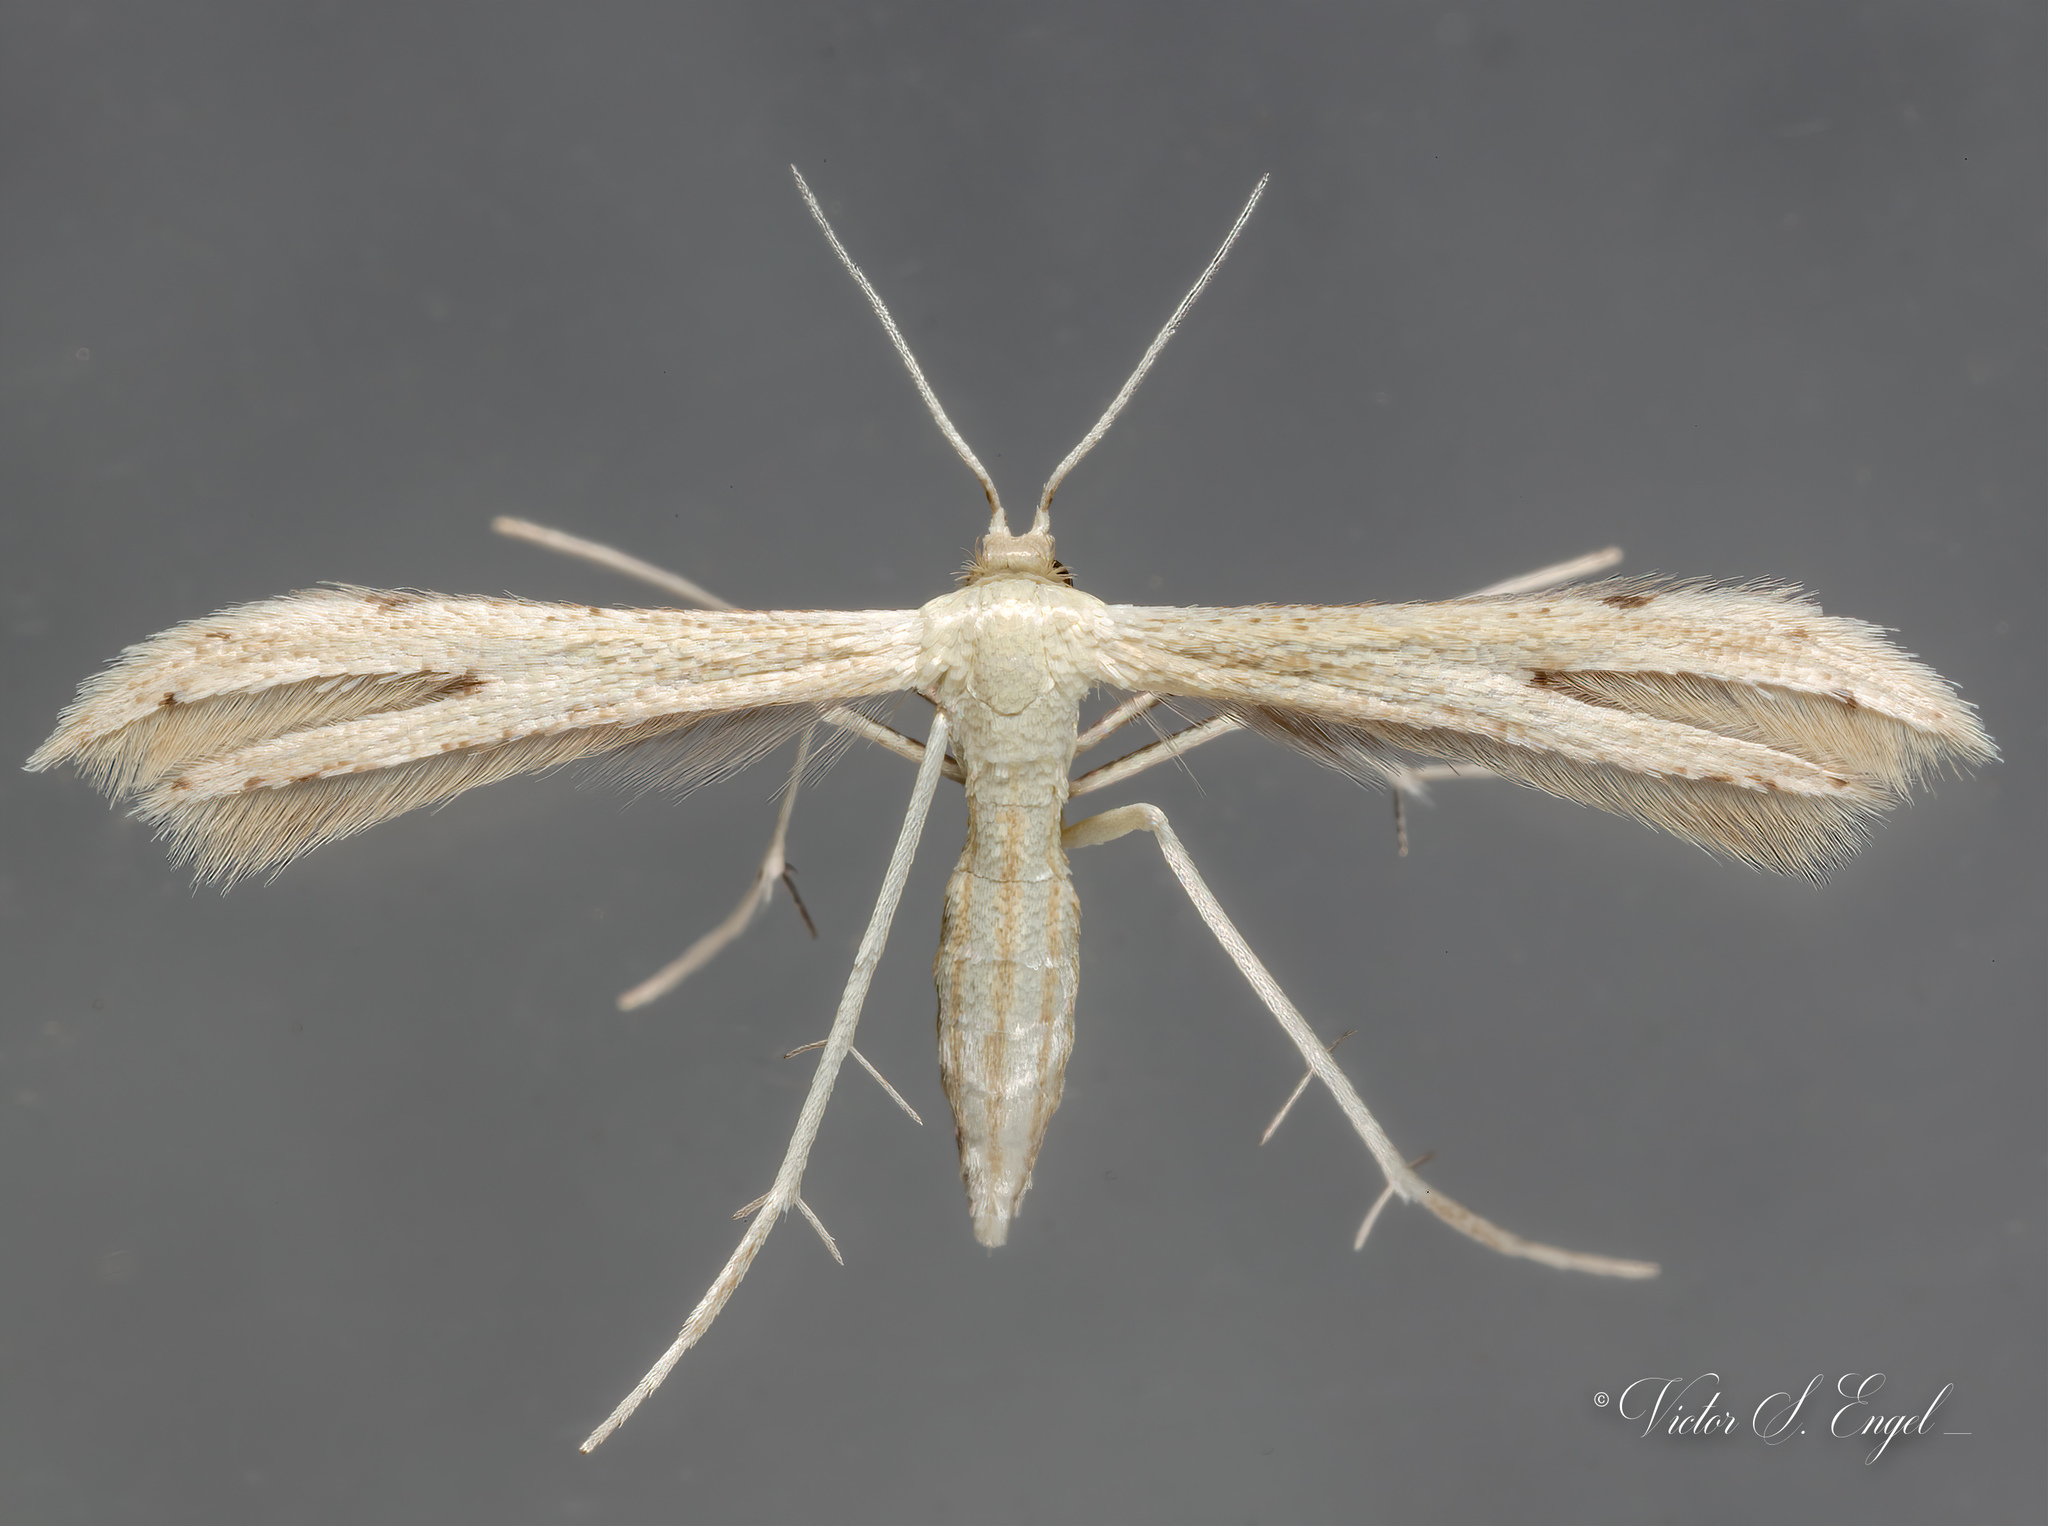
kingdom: Animalia
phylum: Arthropoda
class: Insecta
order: Lepidoptera
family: Pterophoridae
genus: Adaina
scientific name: Adaina simplicius
